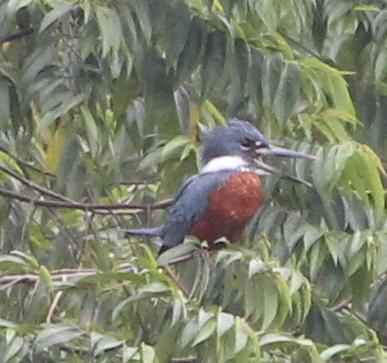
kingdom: Animalia
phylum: Chordata
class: Aves
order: Coraciiformes
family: Alcedinidae
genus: Megaceryle
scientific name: Megaceryle torquata
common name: Ringed kingfisher
